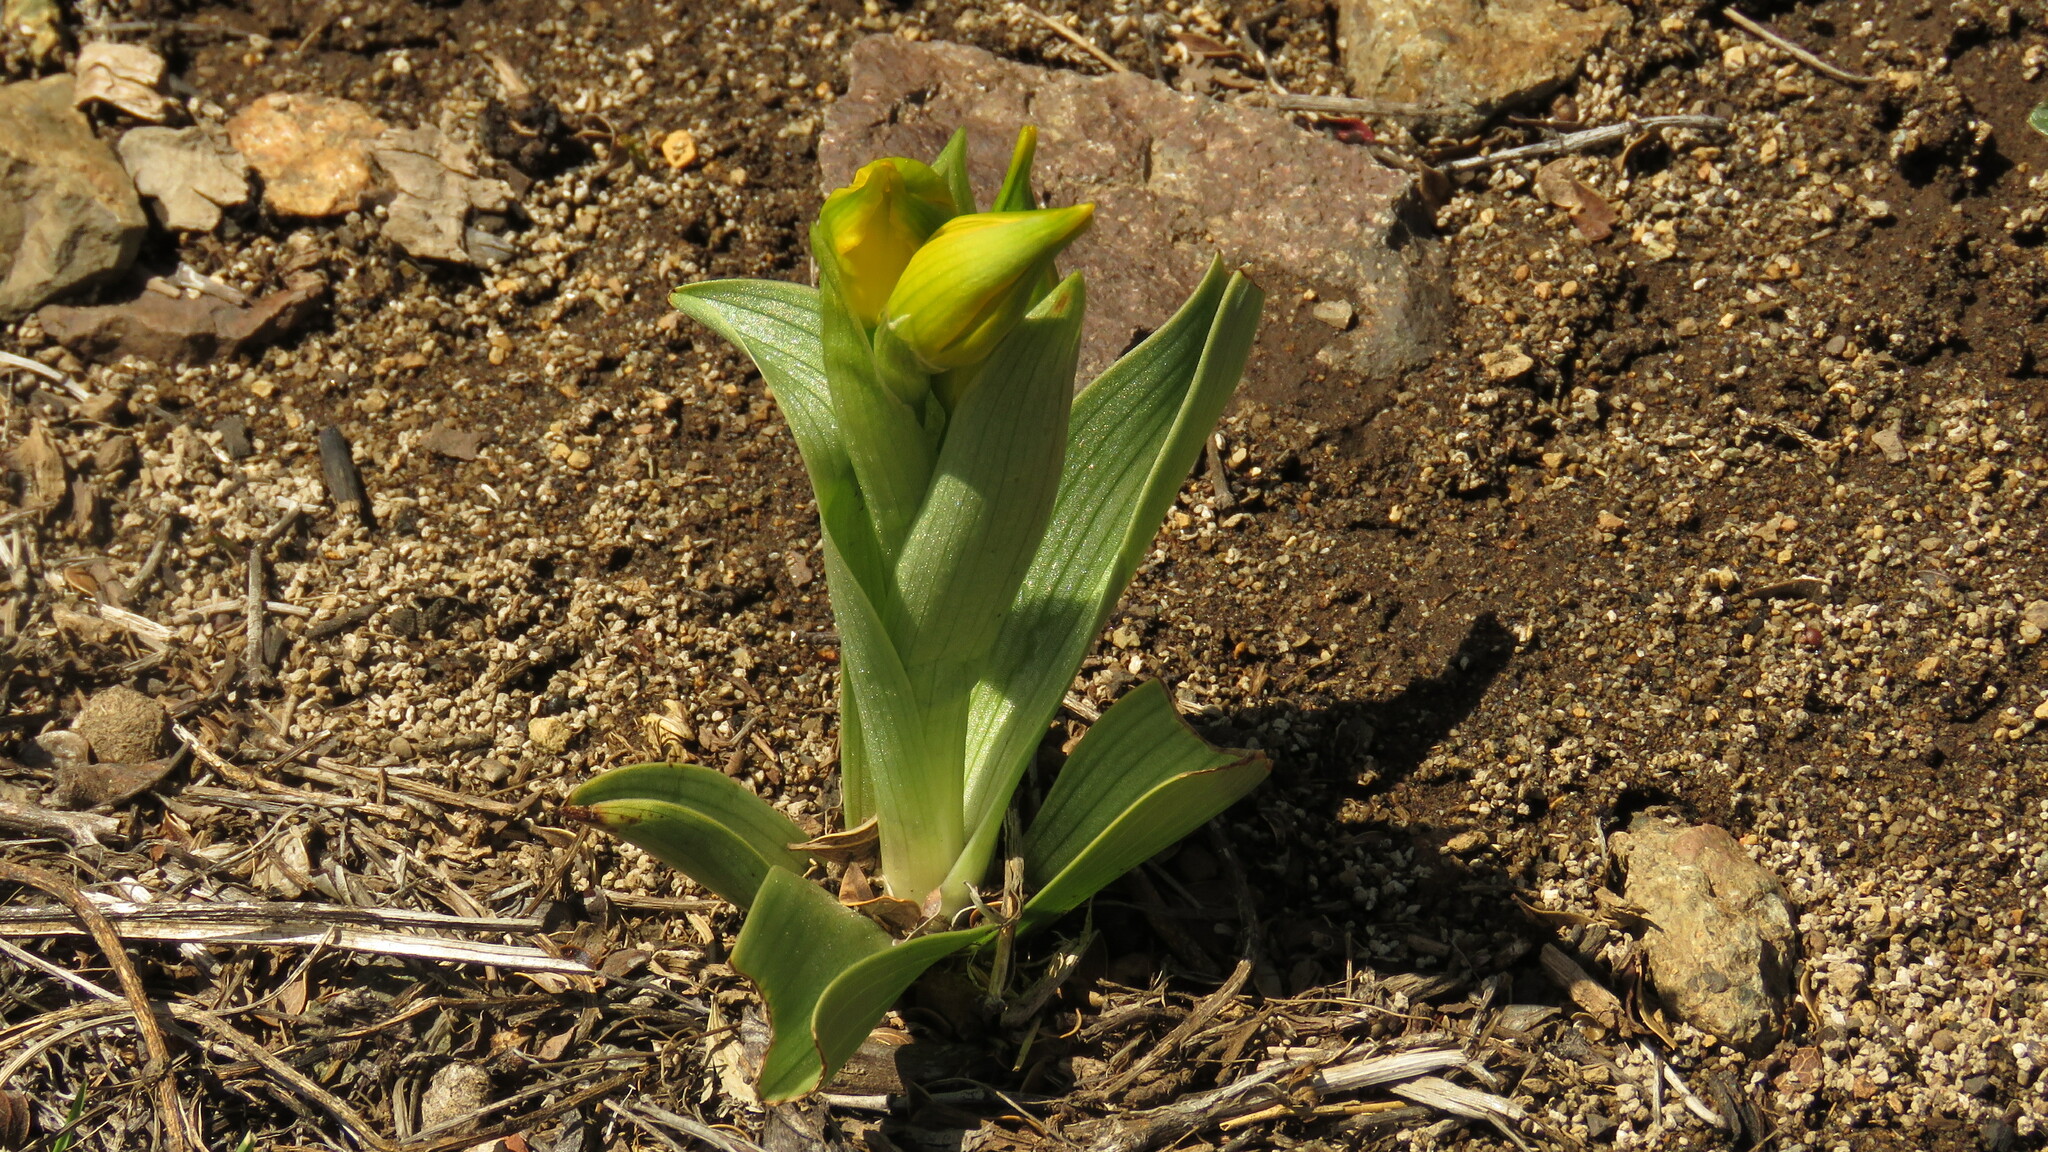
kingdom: Plantae
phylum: Tracheophyta
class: Liliopsida
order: Asparagales
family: Orchidaceae
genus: Chloraea
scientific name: Chloraea alpina
